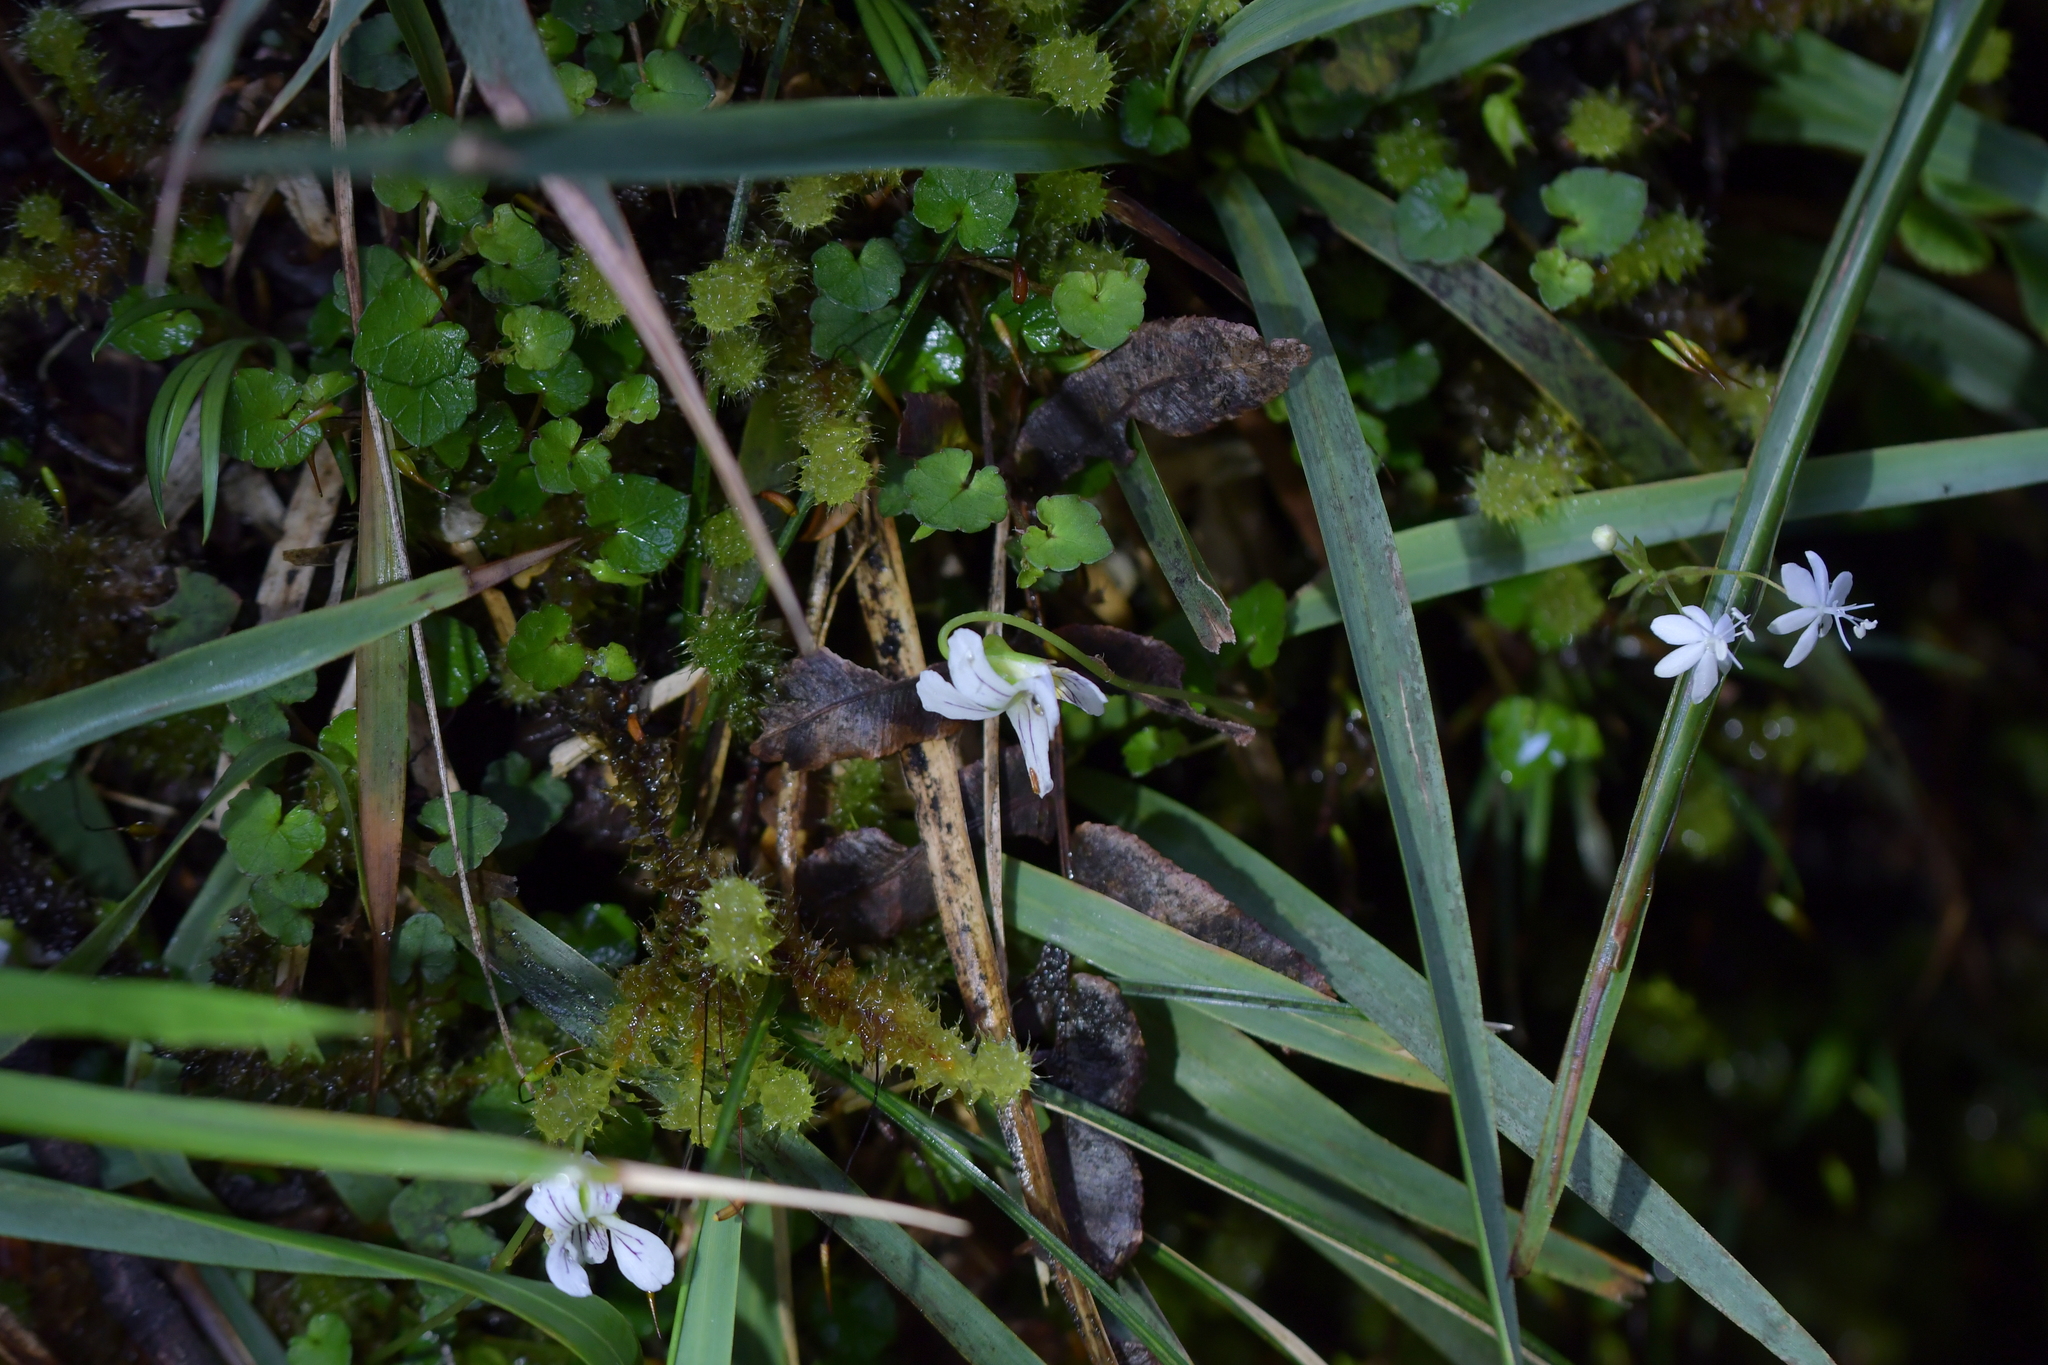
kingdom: Plantae
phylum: Tracheophyta
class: Magnoliopsida
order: Malpighiales
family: Violaceae
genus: Viola
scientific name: Viola filicaulis
